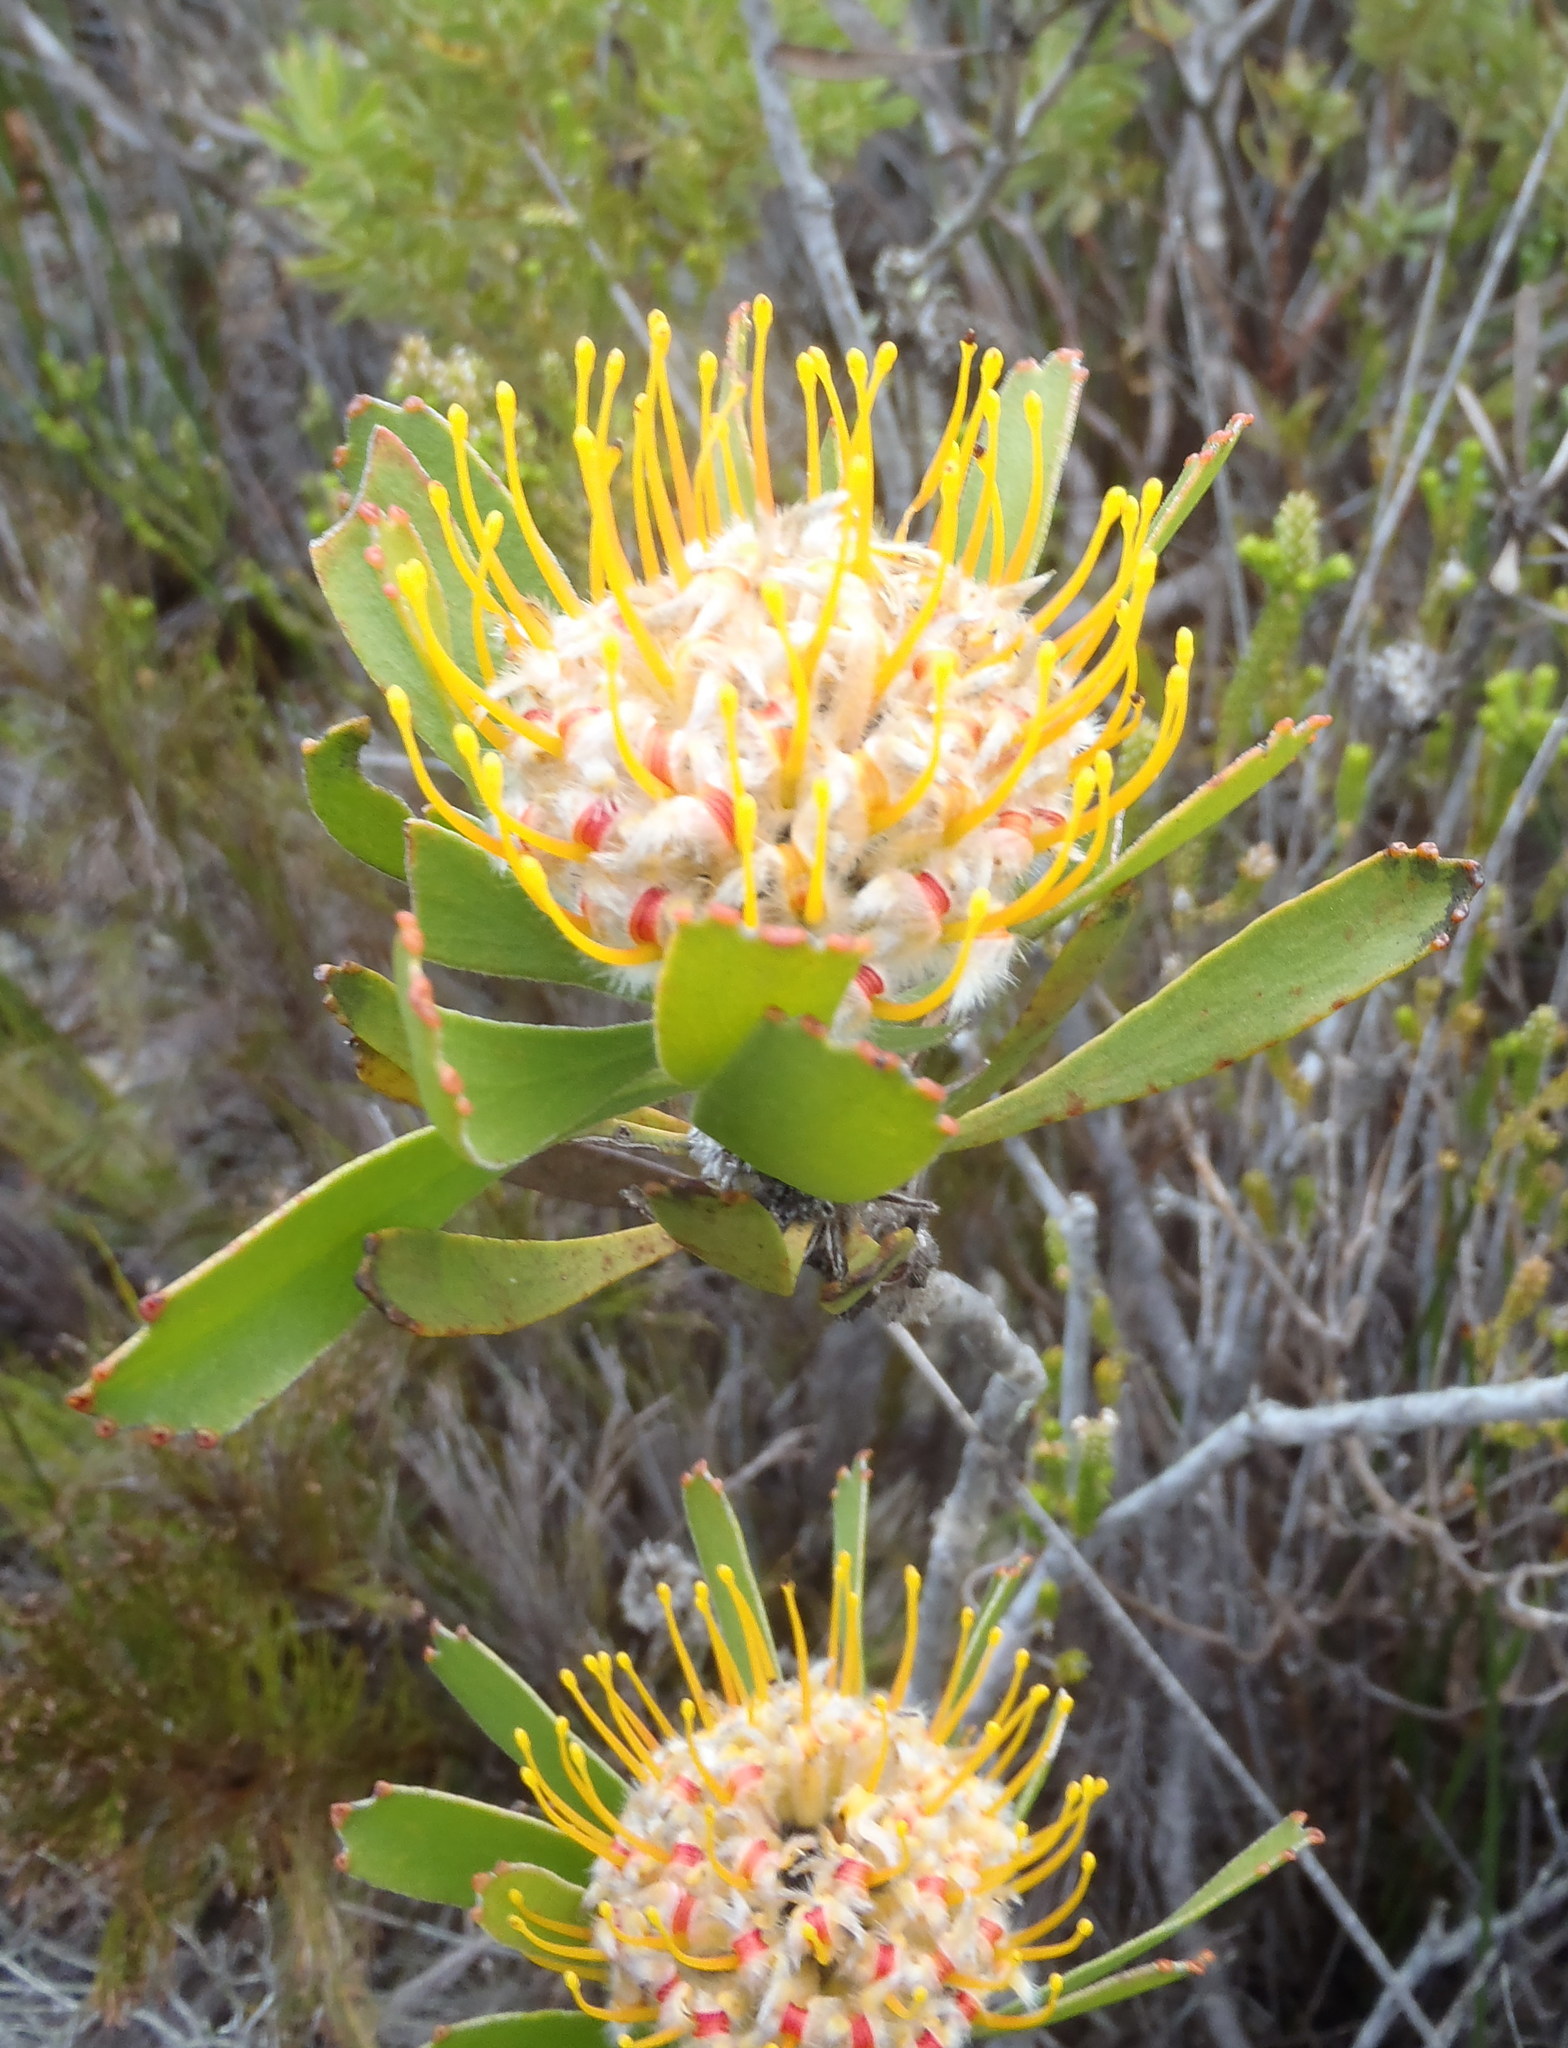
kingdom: Plantae
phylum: Tracheophyta
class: Magnoliopsida
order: Proteales
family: Proteaceae
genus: Leucospermum
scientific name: Leucospermum truncatum
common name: Limestone pincushion
